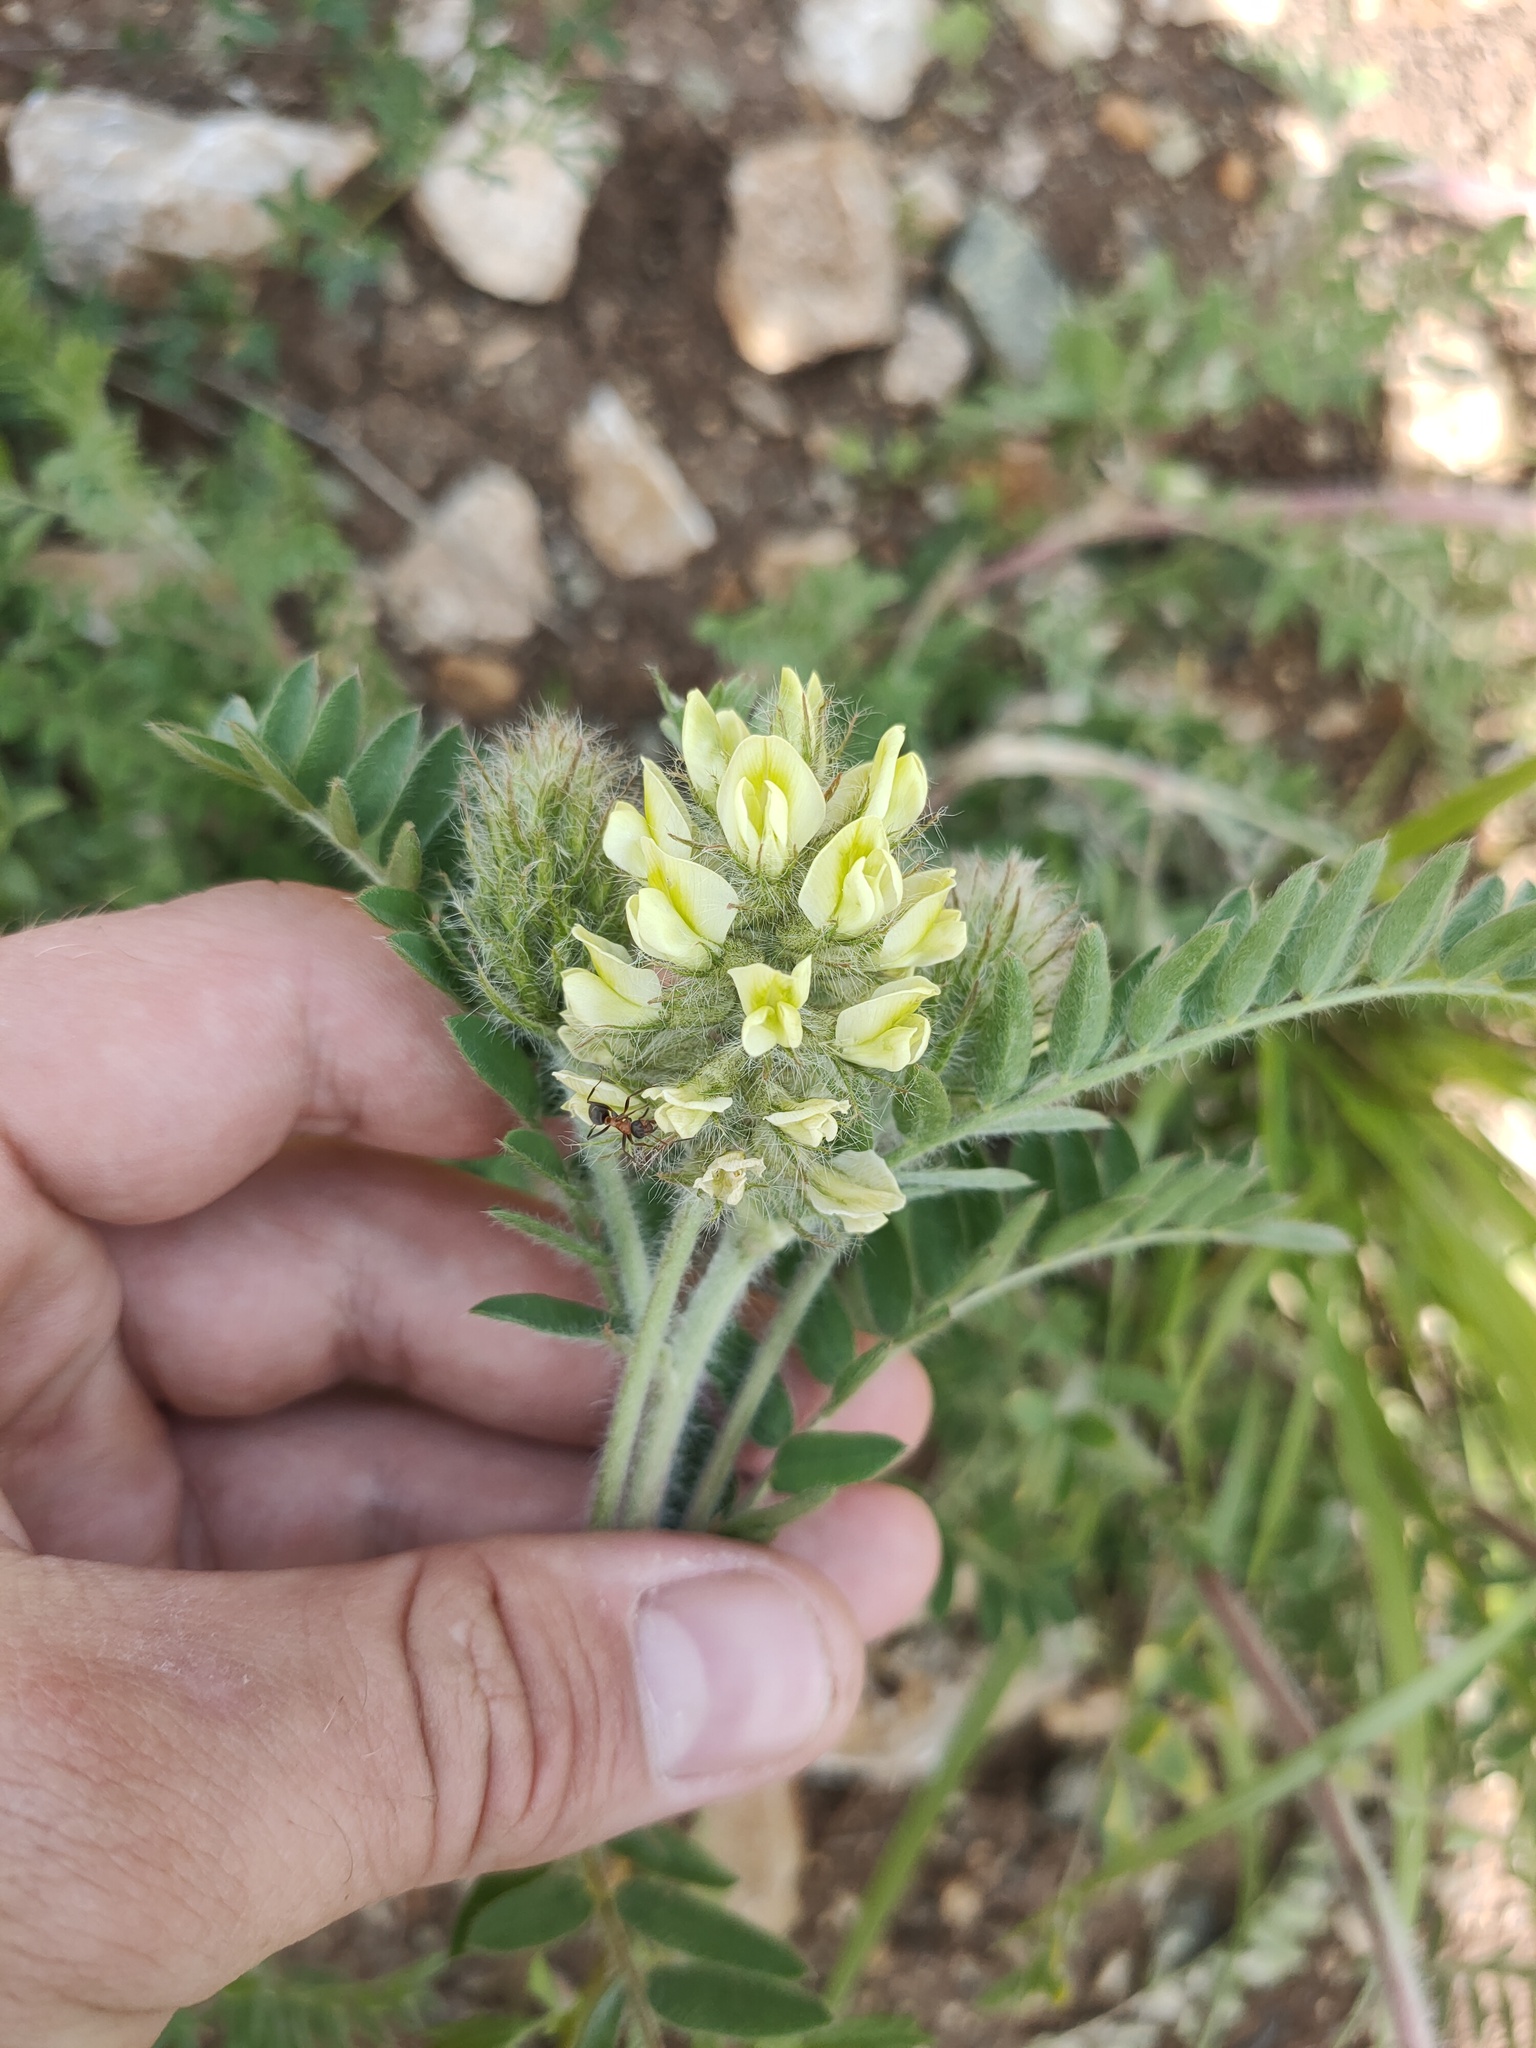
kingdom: Plantae
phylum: Tracheophyta
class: Magnoliopsida
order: Fabales
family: Fabaceae
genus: Oxytropis
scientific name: Oxytropis pilosa
